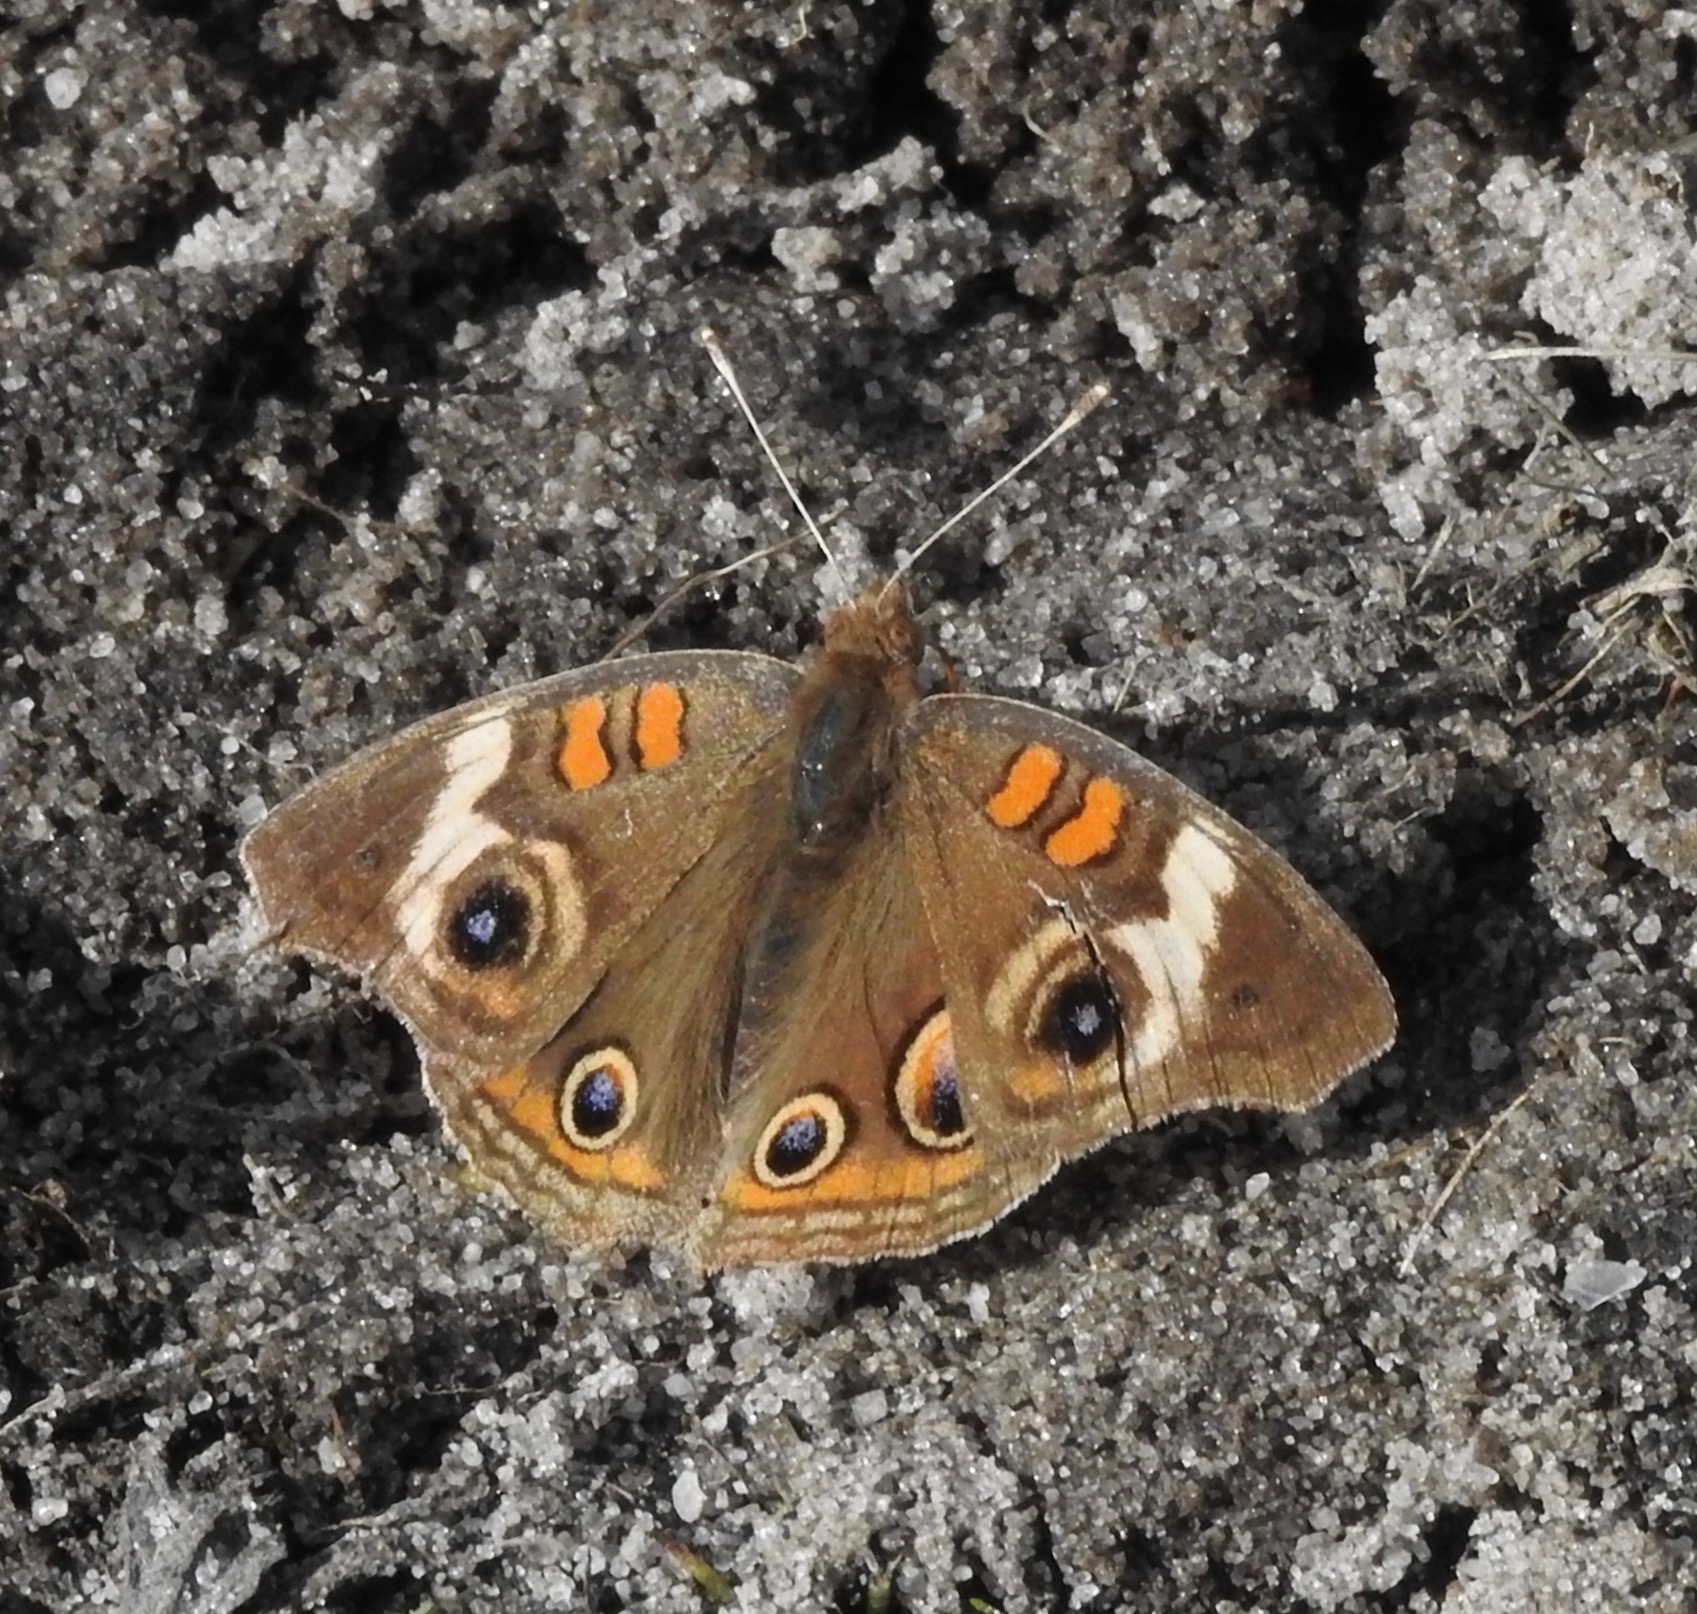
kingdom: Animalia
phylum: Arthropoda
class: Insecta
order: Lepidoptera
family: Nymphalidae
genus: Junonia
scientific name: Junonia coenia
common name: Common buckeye
